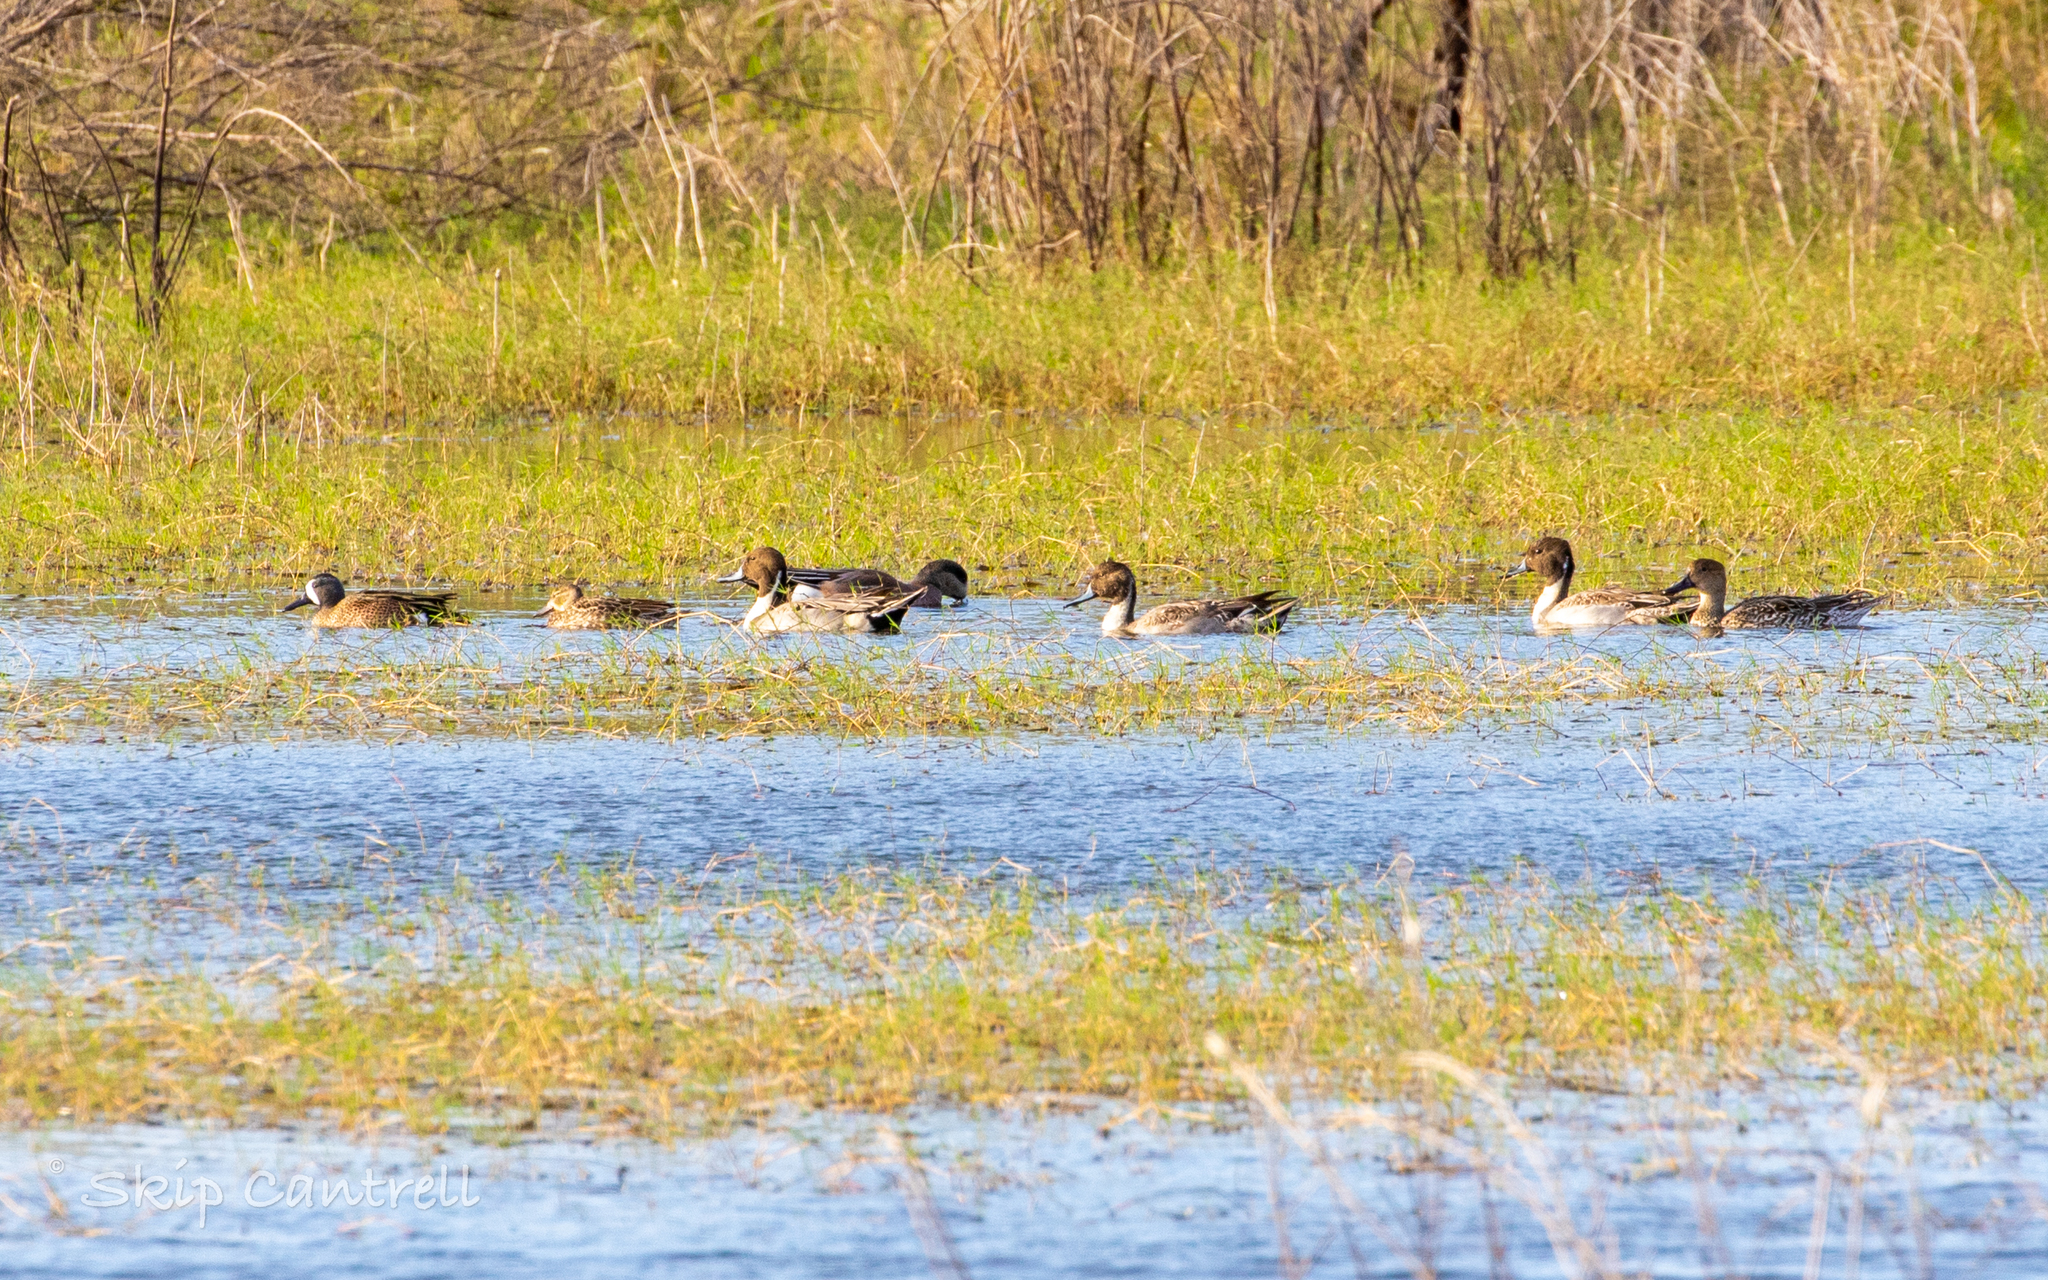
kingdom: Animalia
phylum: Chordata
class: Aves
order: Anseriformes
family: Anatidae
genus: Anas
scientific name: Anas acuta
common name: Northern pintail
